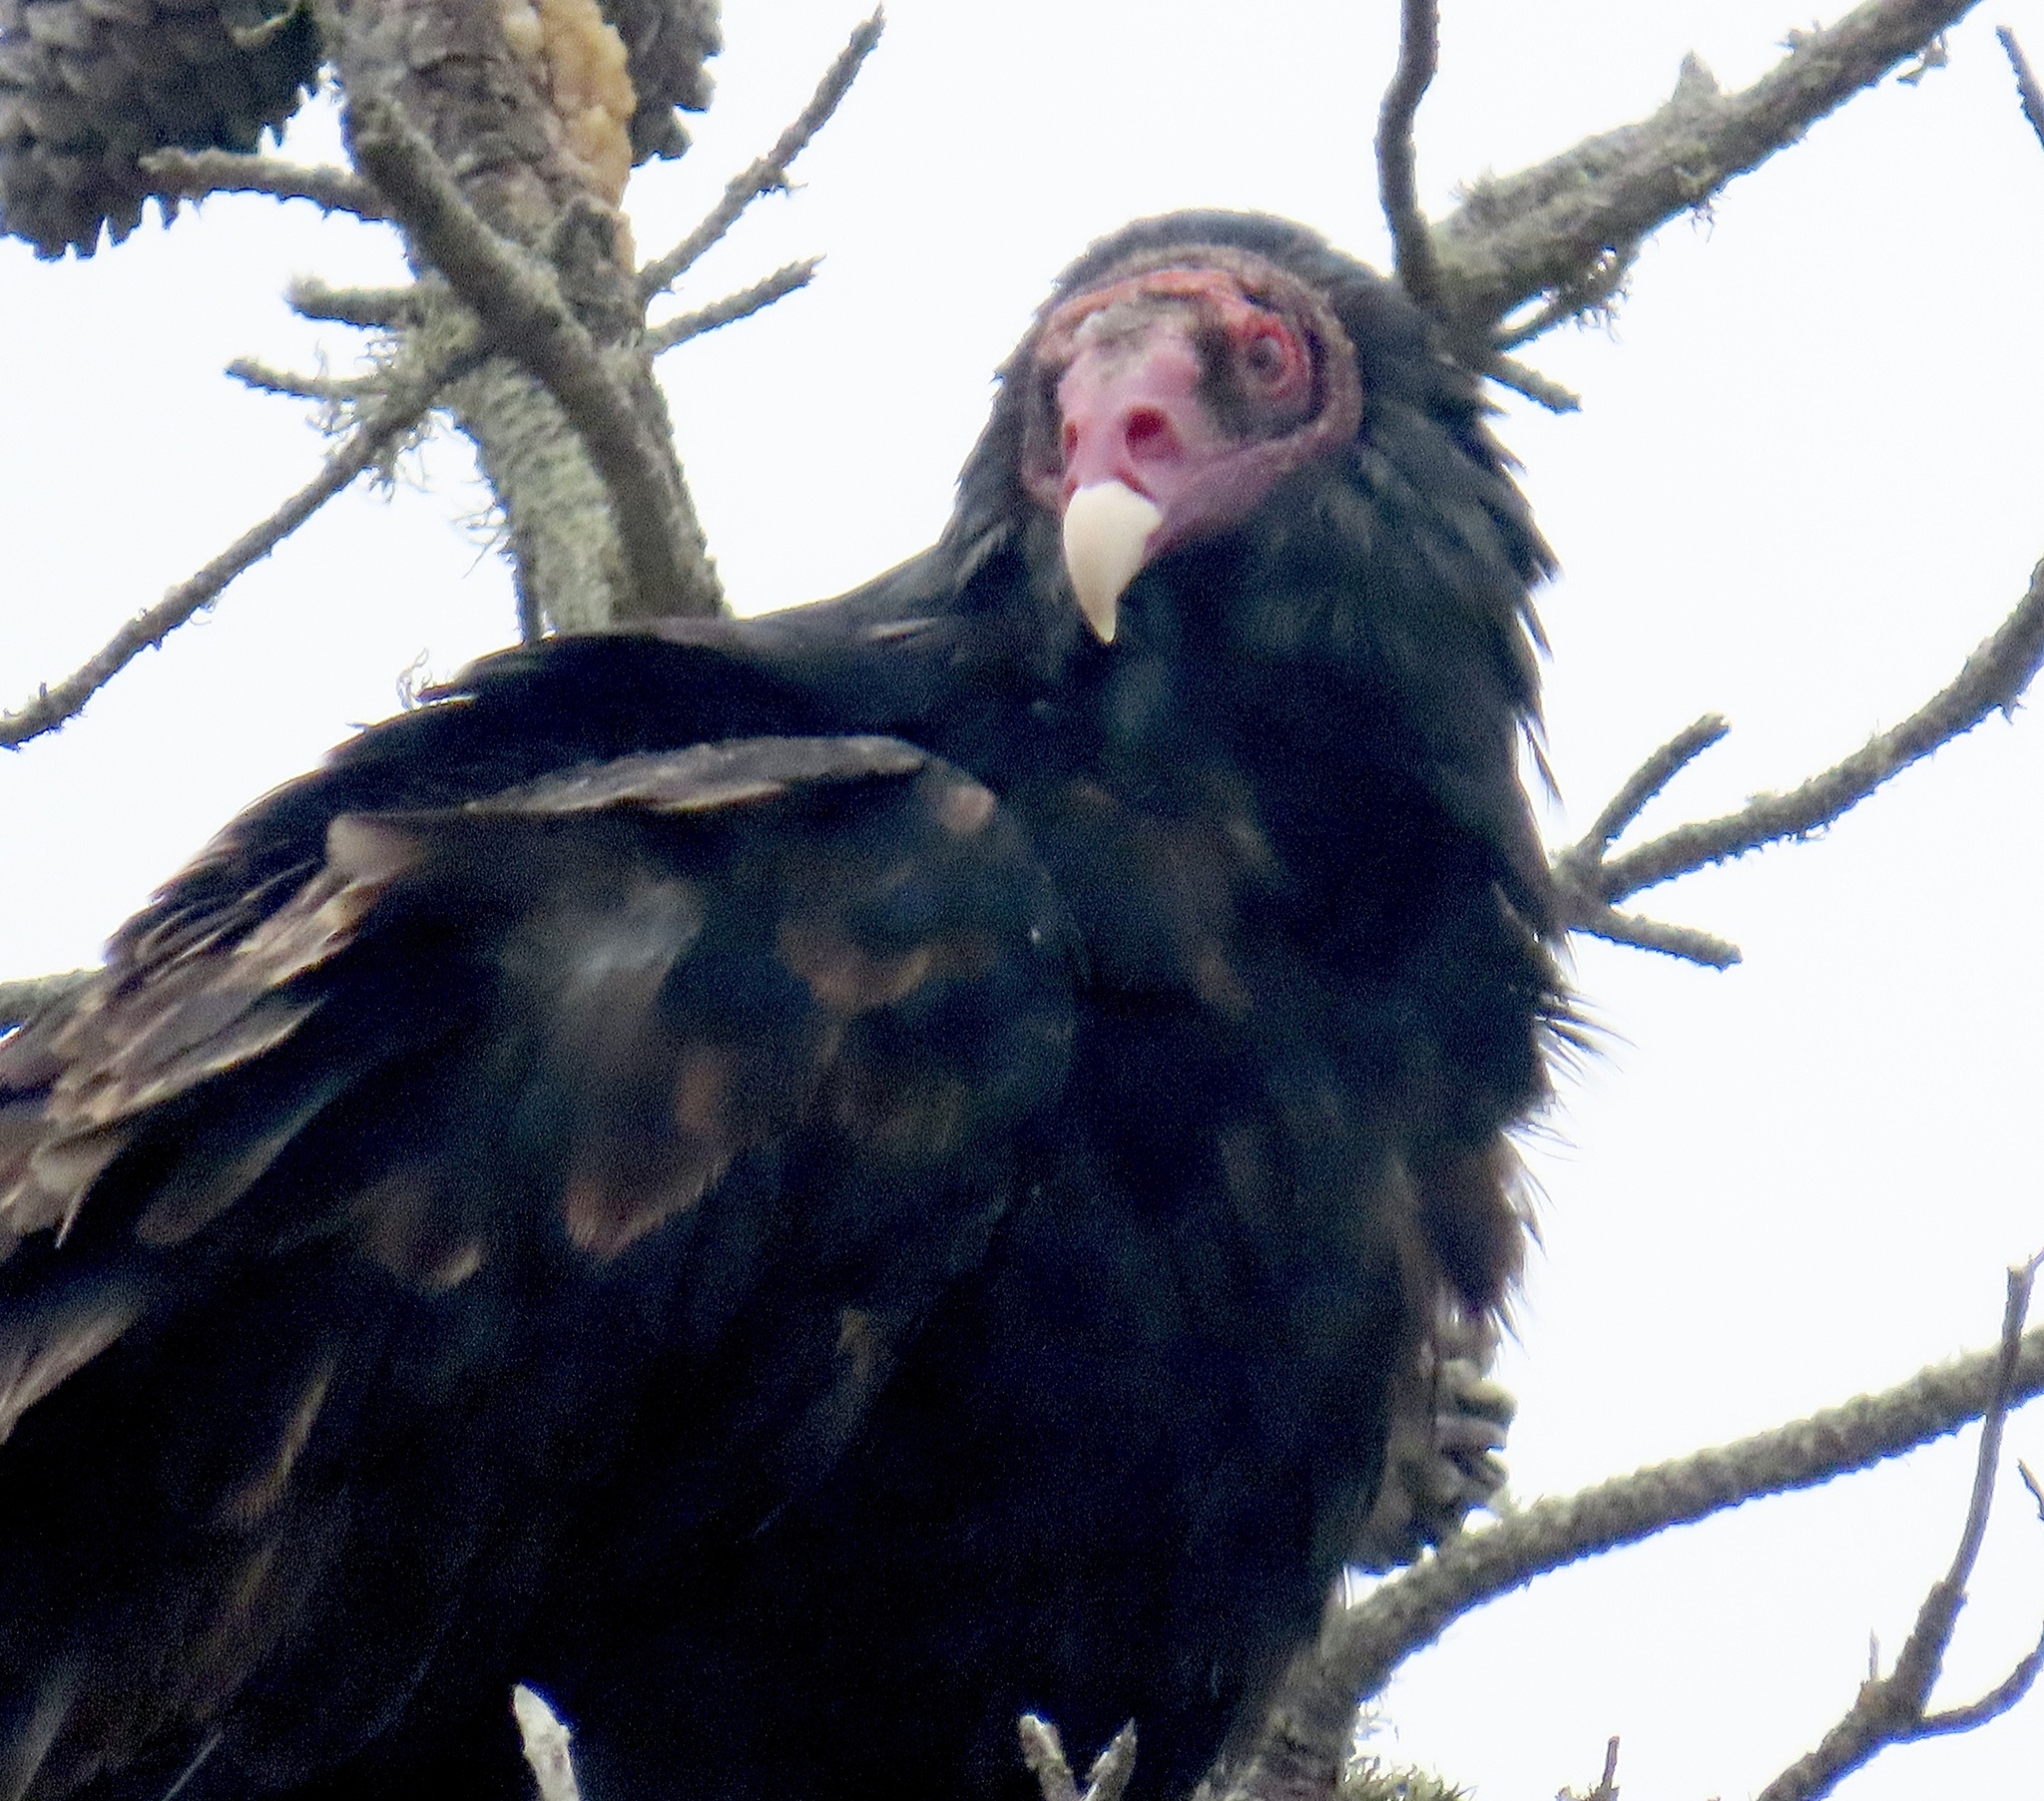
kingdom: Animalia
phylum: Chordata
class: Aves
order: Accipitriformes
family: Cathartidae
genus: Cathartes
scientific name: Cathartes aura
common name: Turkey vulture
